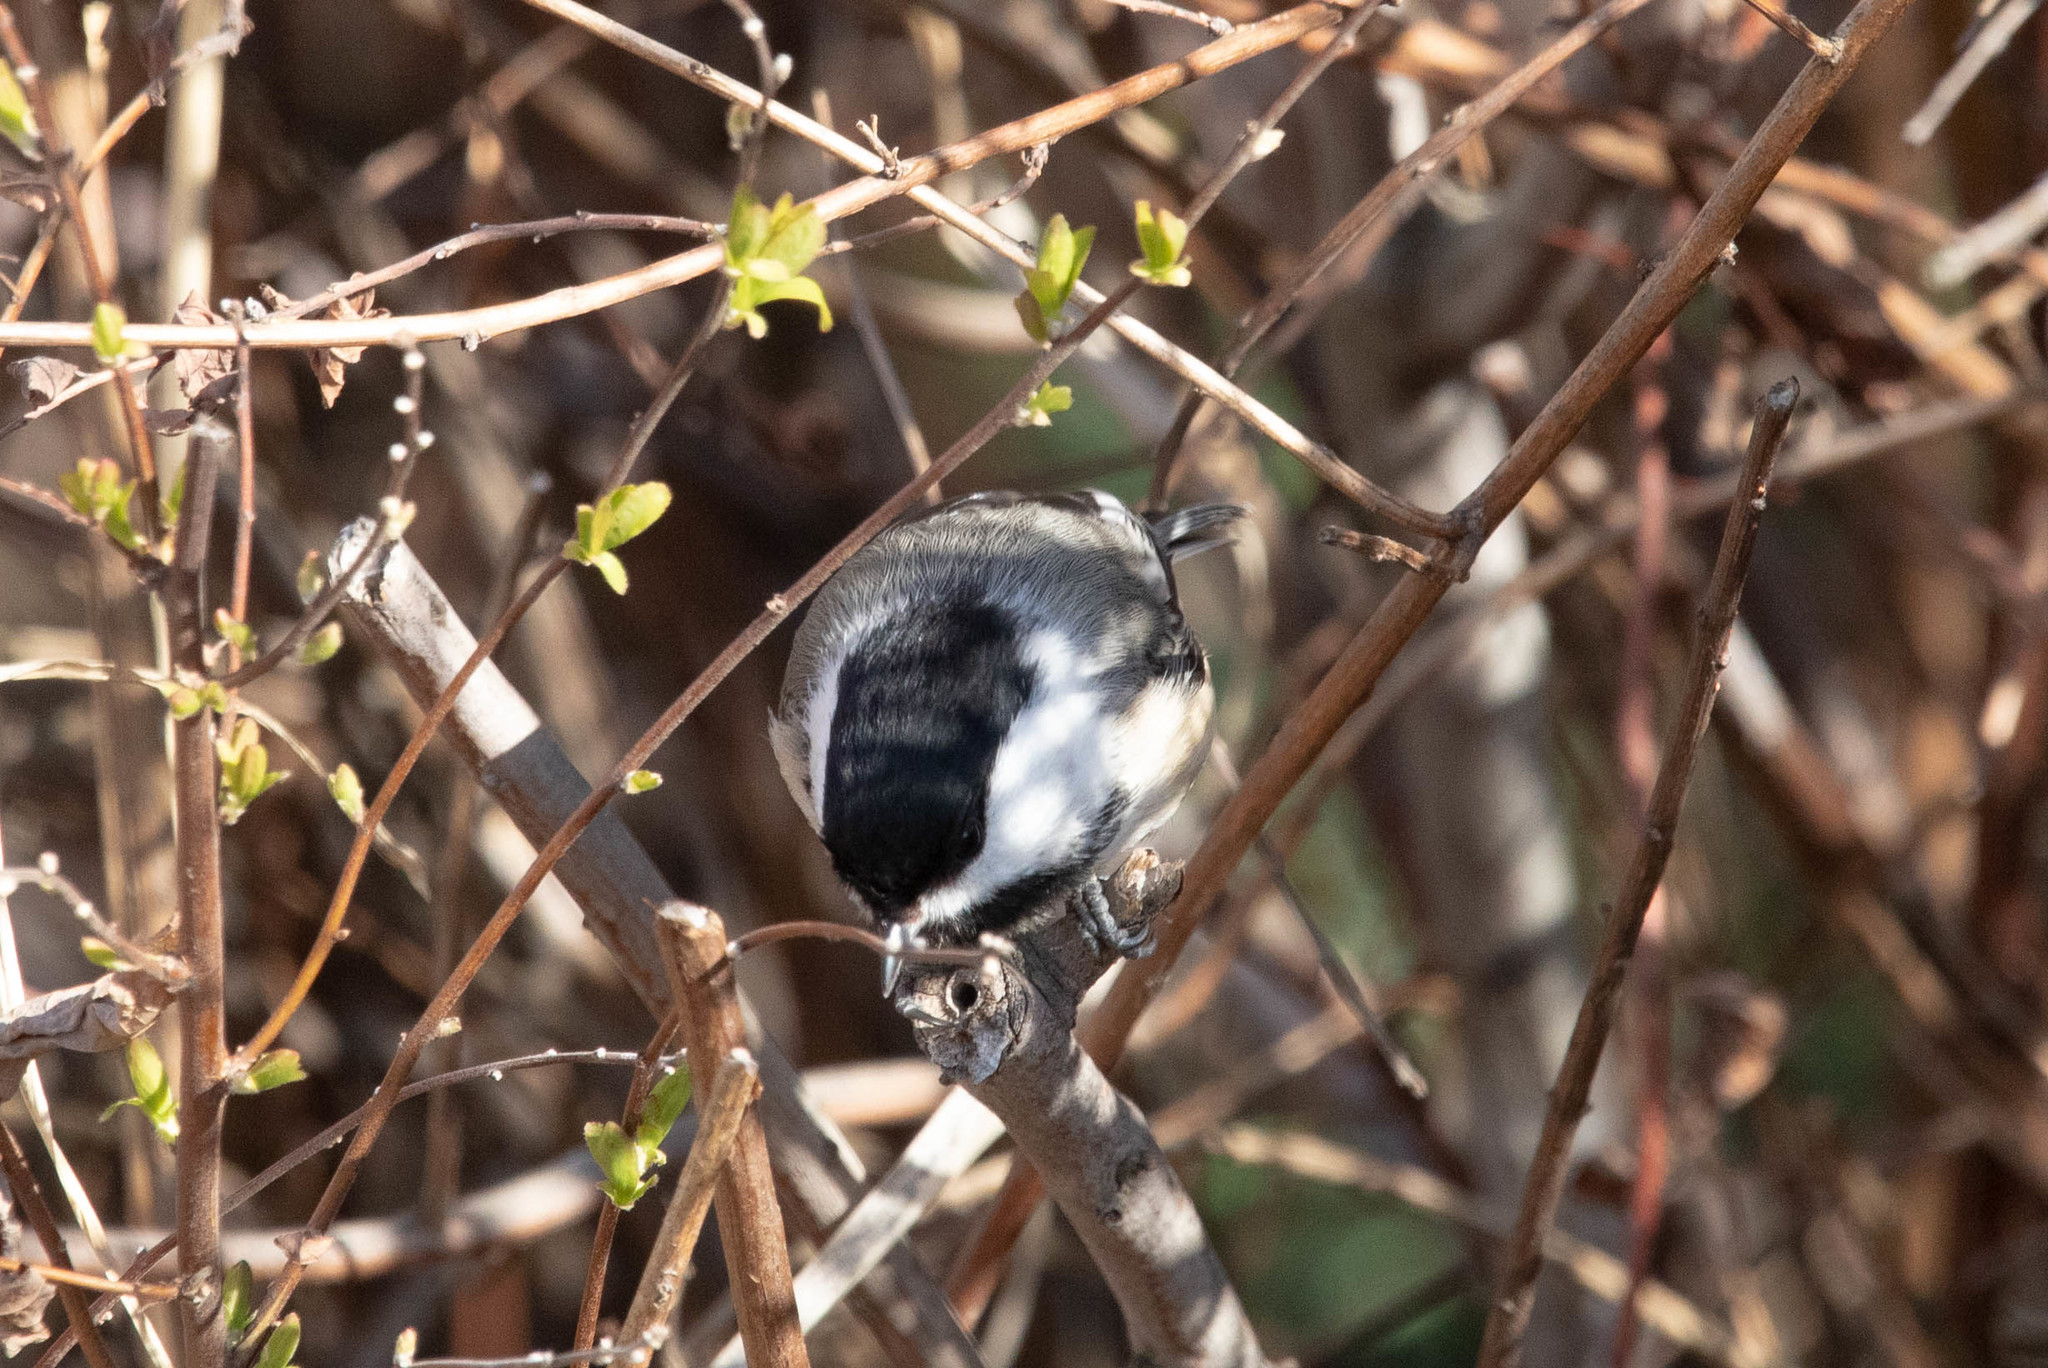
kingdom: Animalia
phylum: Chordata
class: Aves
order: Passeriformes
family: Paridae
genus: Poecile
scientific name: Poecile atricapillus
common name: Black-capped chickadee
